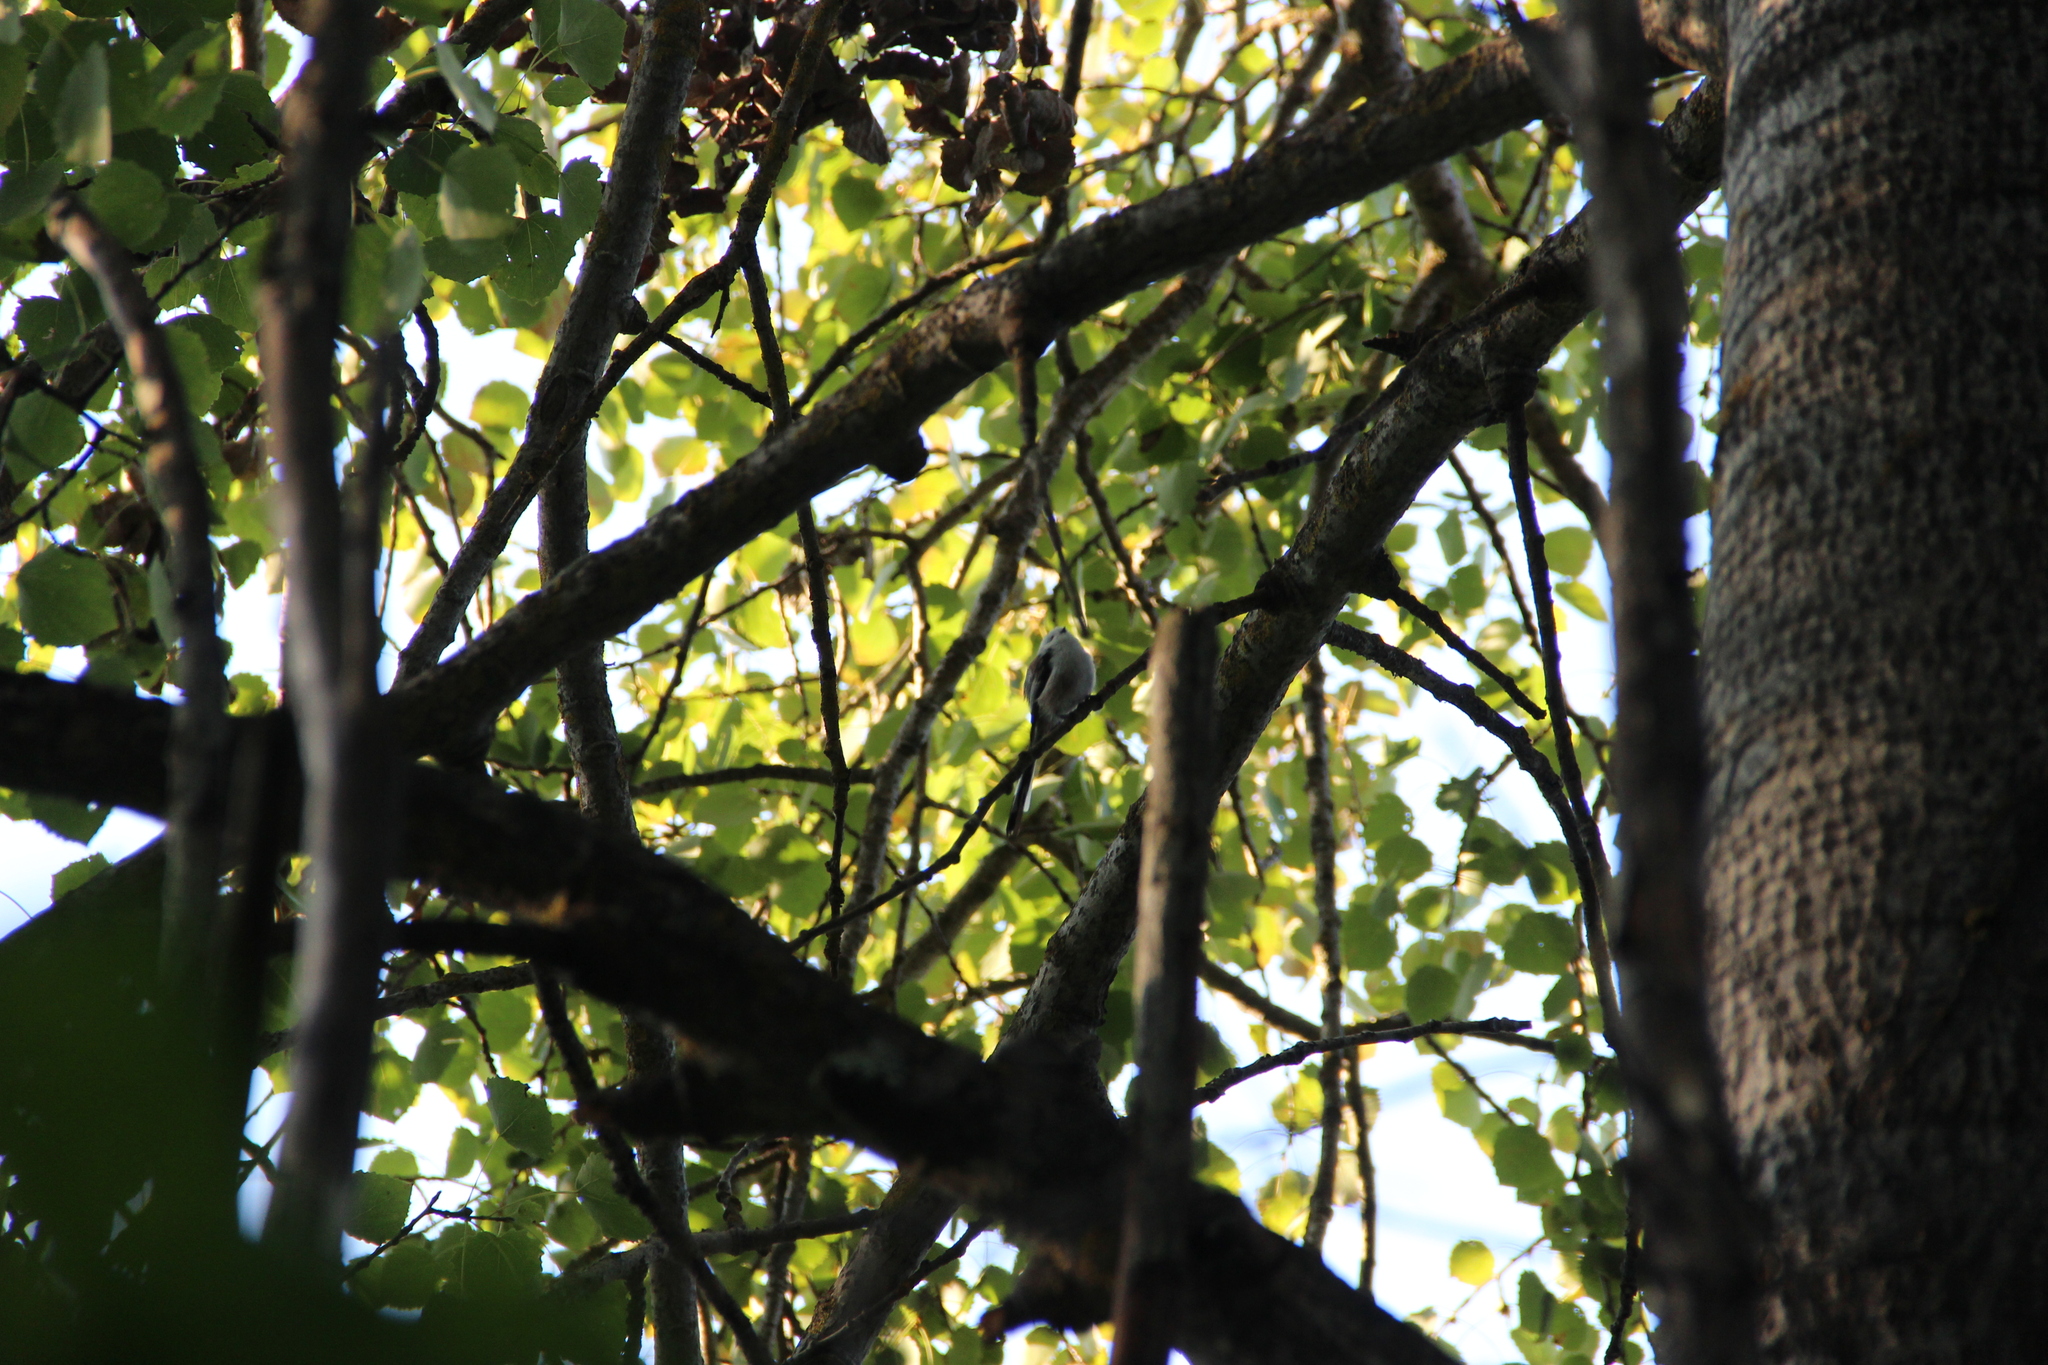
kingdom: Animalia
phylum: Chordata
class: Aves
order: Passeriformes
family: Aegithalidae
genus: Aegithalos
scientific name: Aegithalos caudatus
